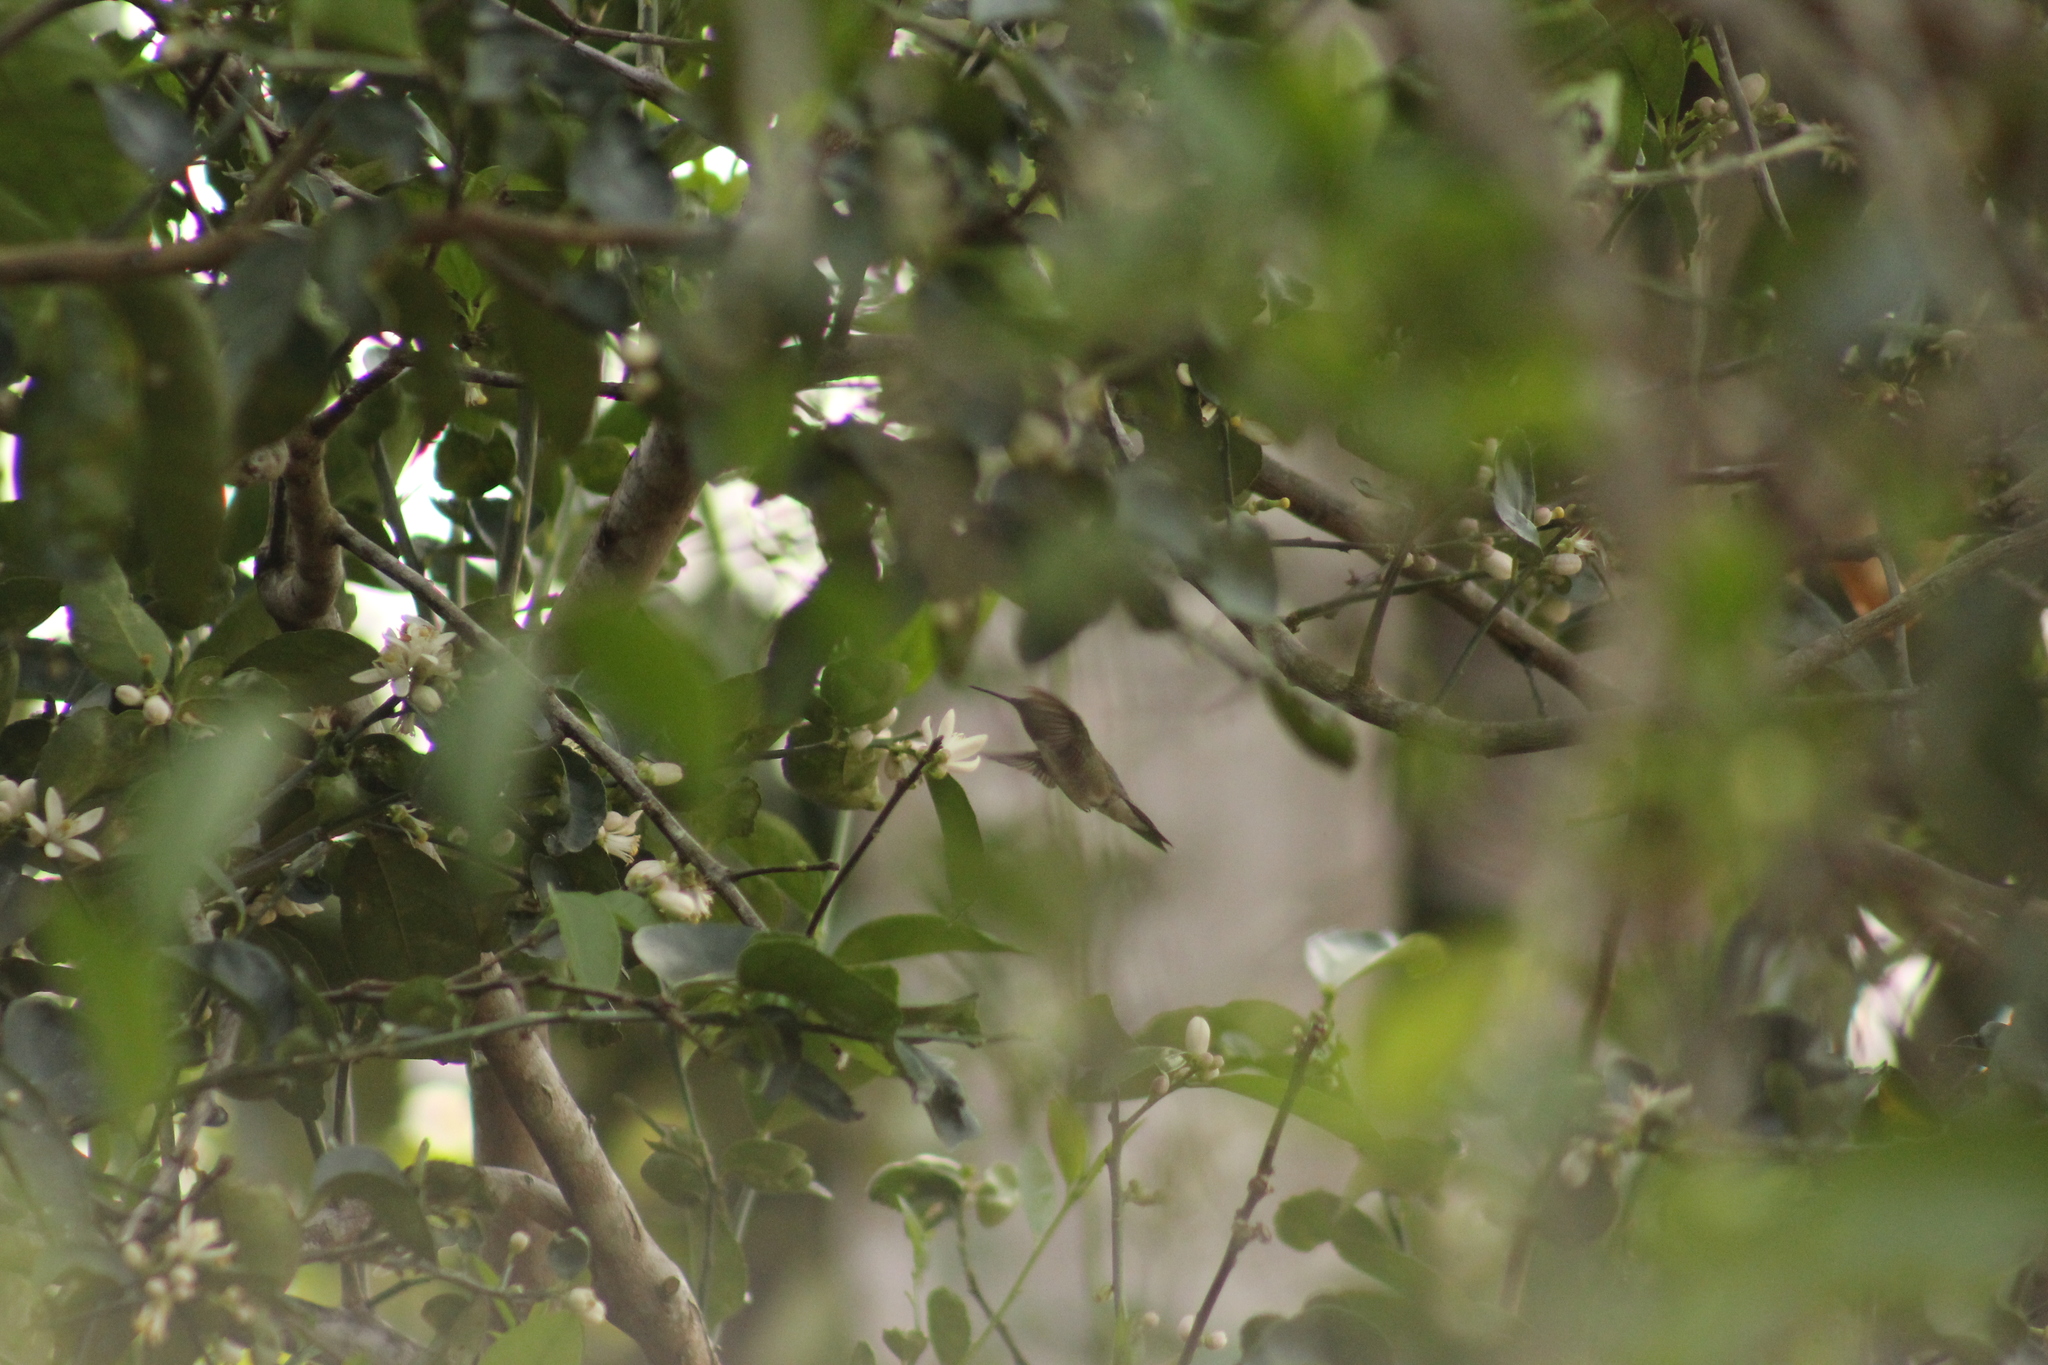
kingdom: Animalia
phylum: Chordata
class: Aves
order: Apodiformes
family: Trochilidae
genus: Archilochus
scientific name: Archilochus colubris
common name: Ruby-throated hummingbird
